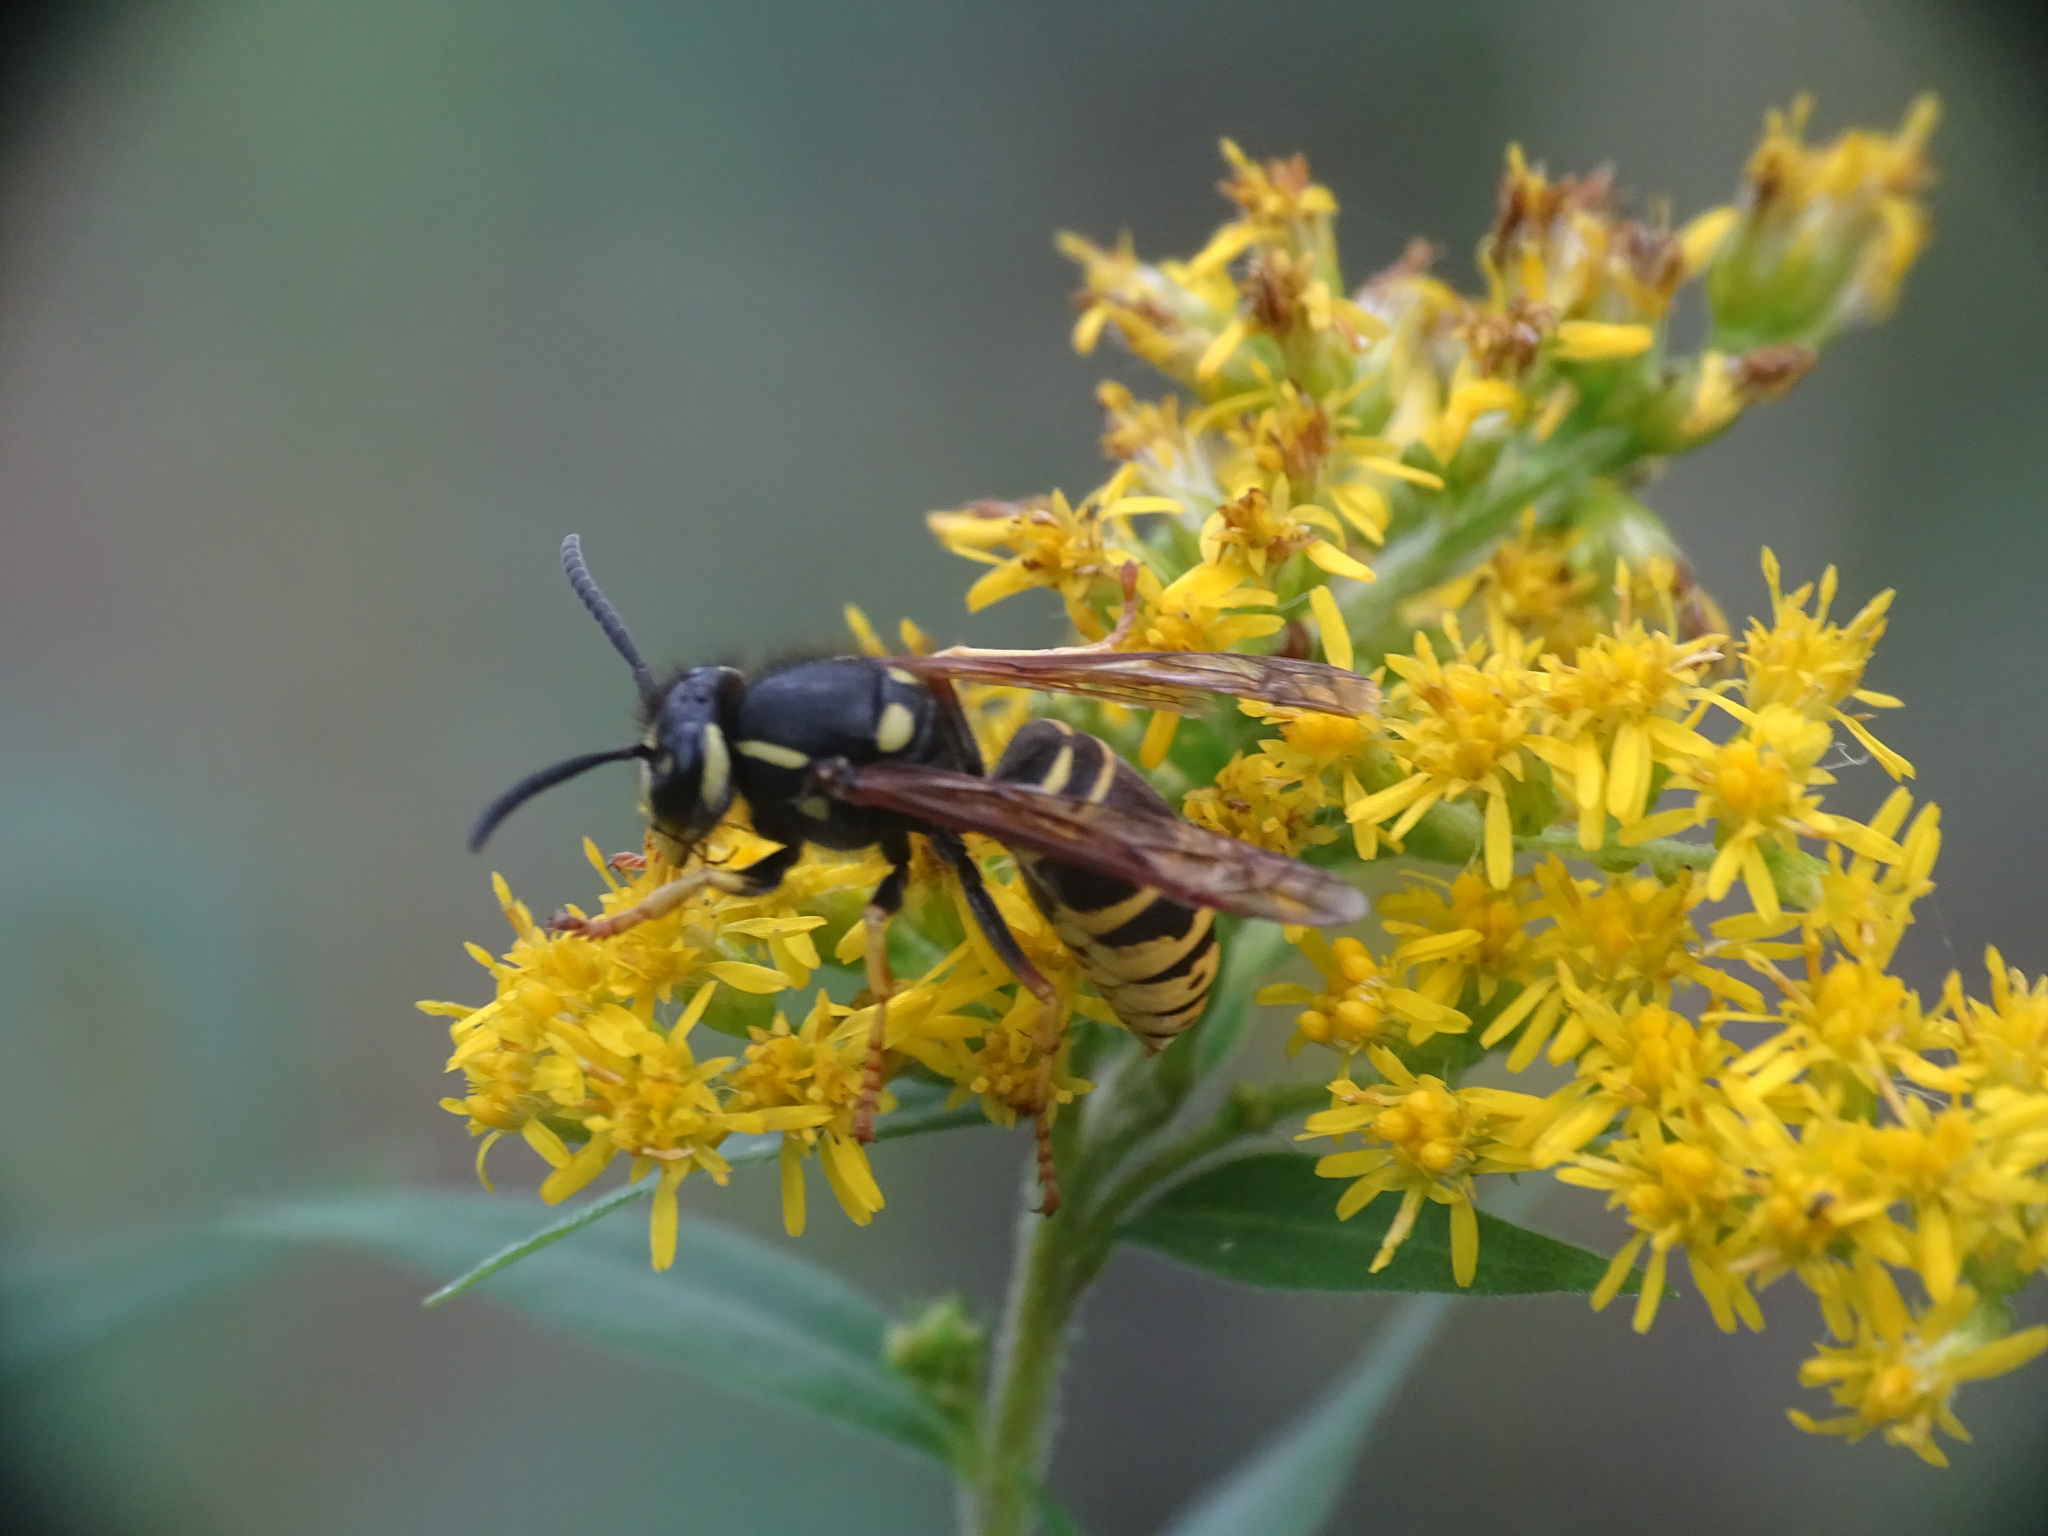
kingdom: Animalia
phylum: Arthropoda
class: Insecta
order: Hymenoptera
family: Vespidae
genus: Vespula
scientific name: Vespula vidua
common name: Widow yellowjacket
